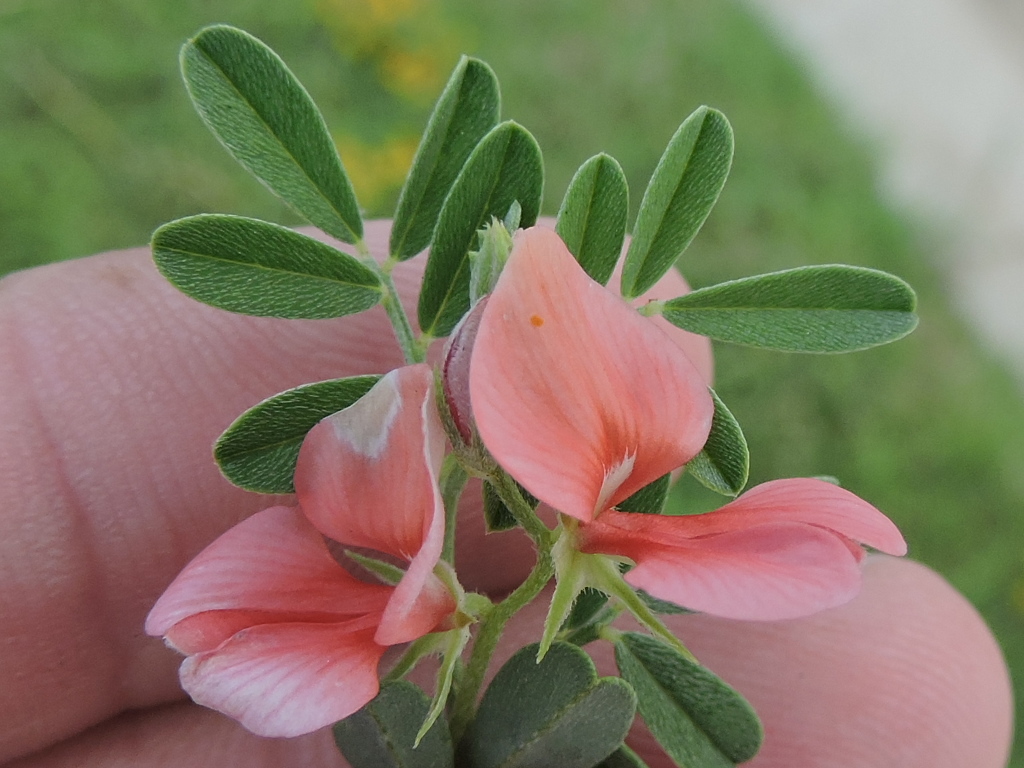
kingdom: Plantae
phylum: Tracheophyta
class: Magnoliopsida
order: Fabales
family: Fabaceae
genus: Indigofera
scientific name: Indigofera miniata
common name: Coast indigo
